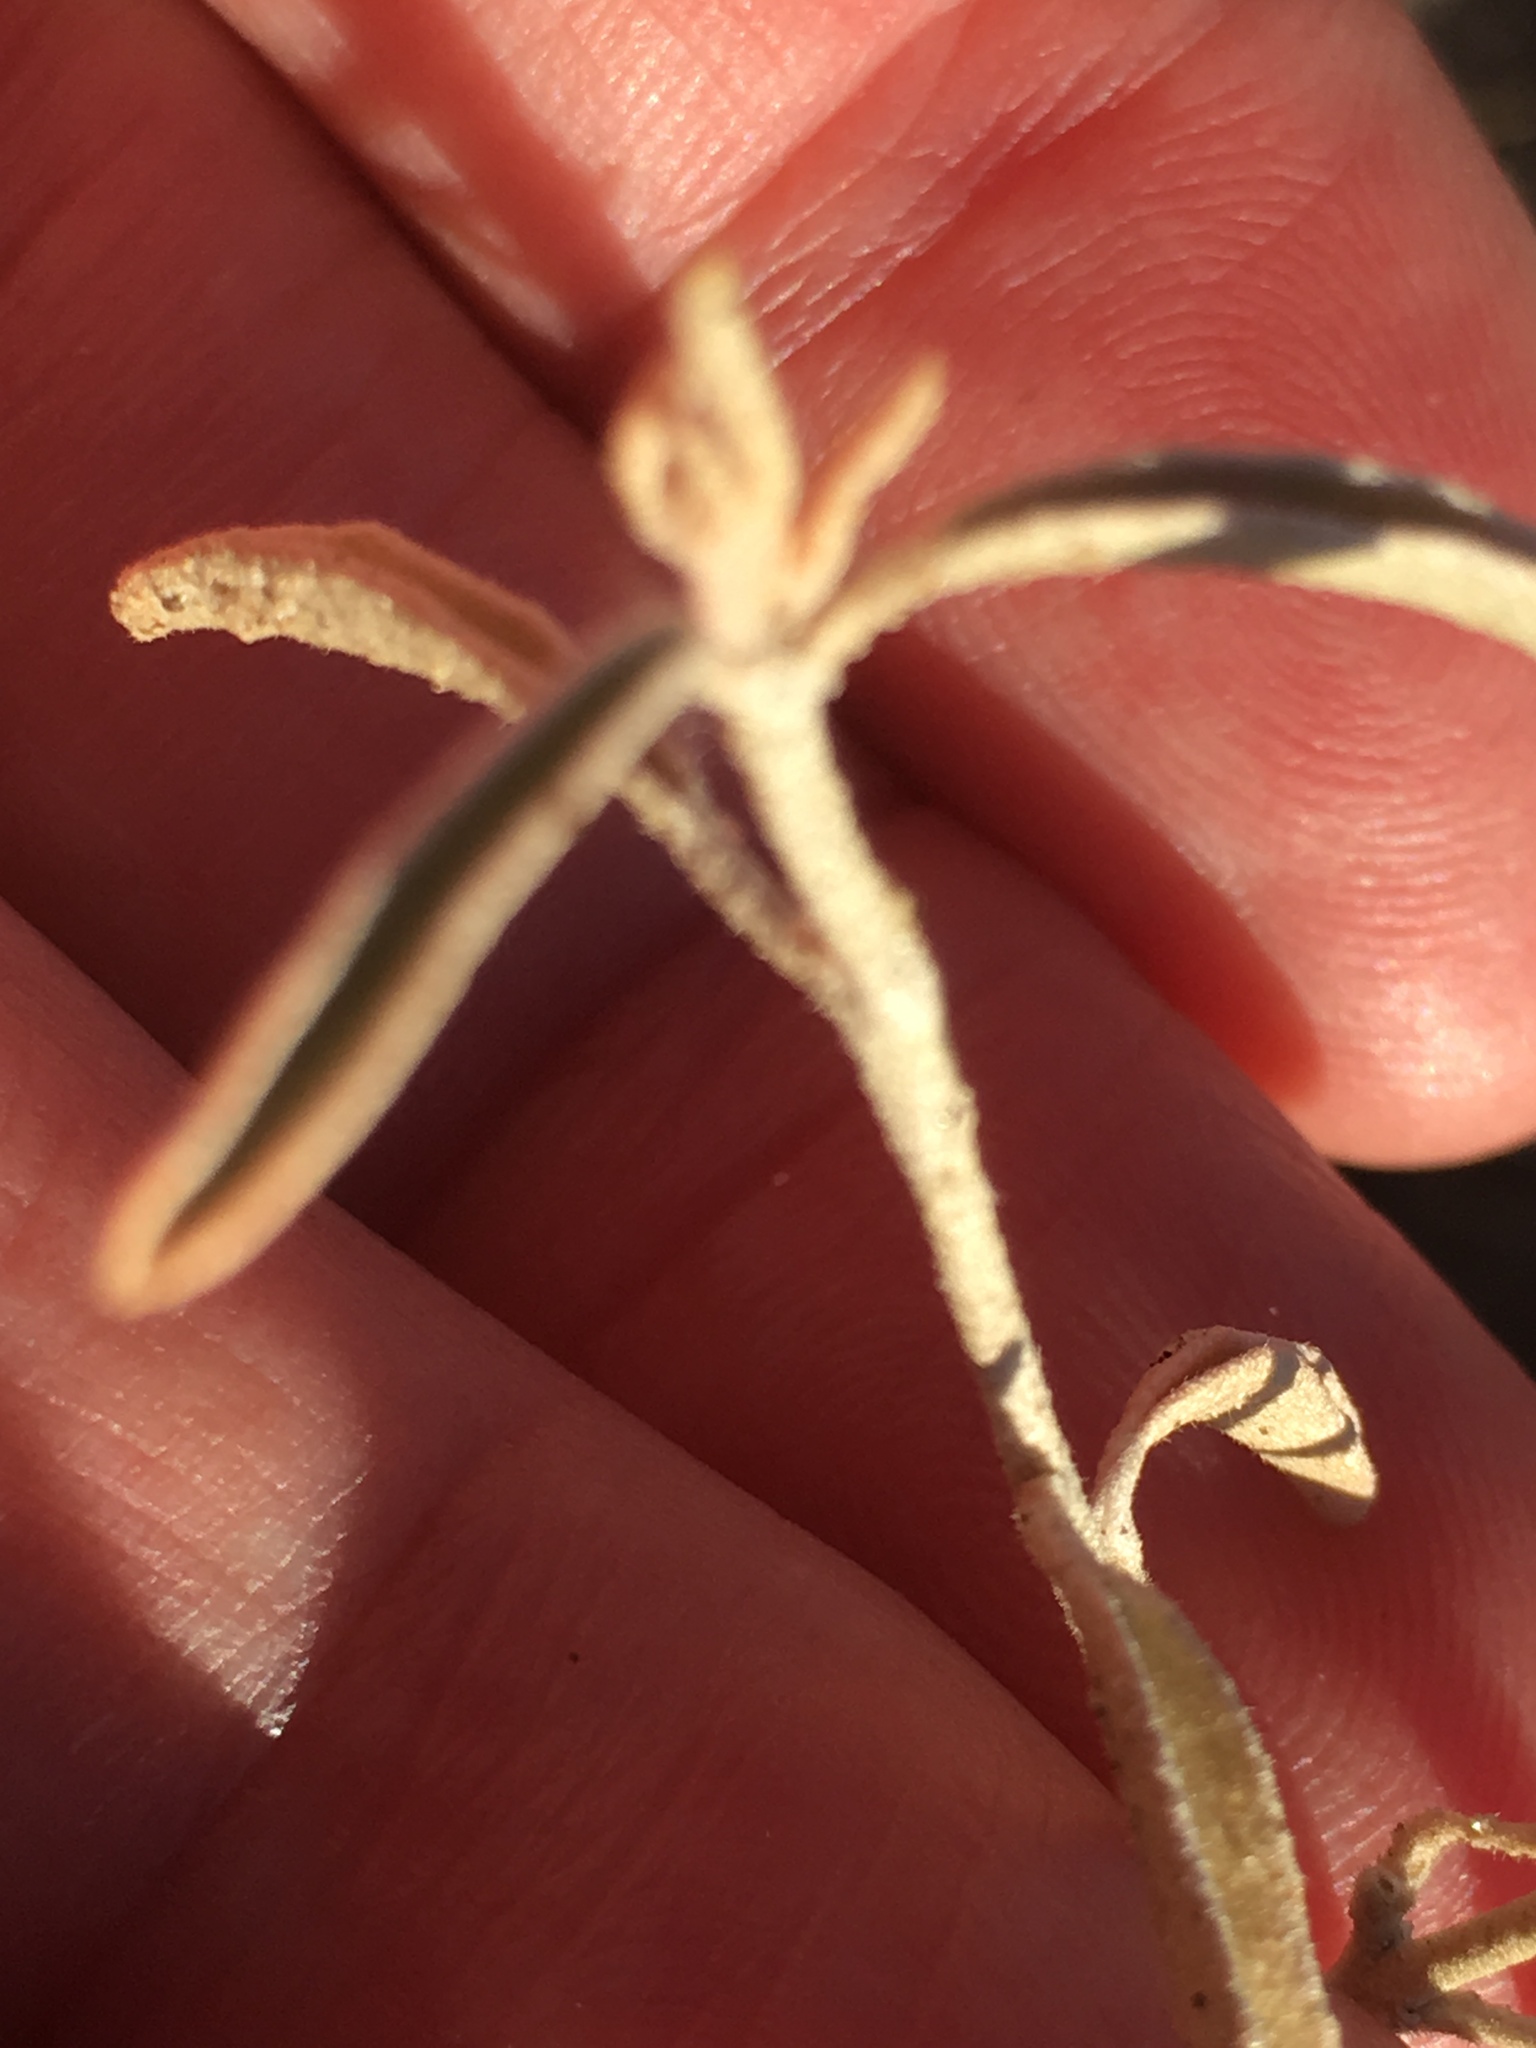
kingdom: Plantae
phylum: Tracheophyta
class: Magnoliopsida
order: Malpighiales
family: Euphorbiaceae
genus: Croton
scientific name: Croton californicus
